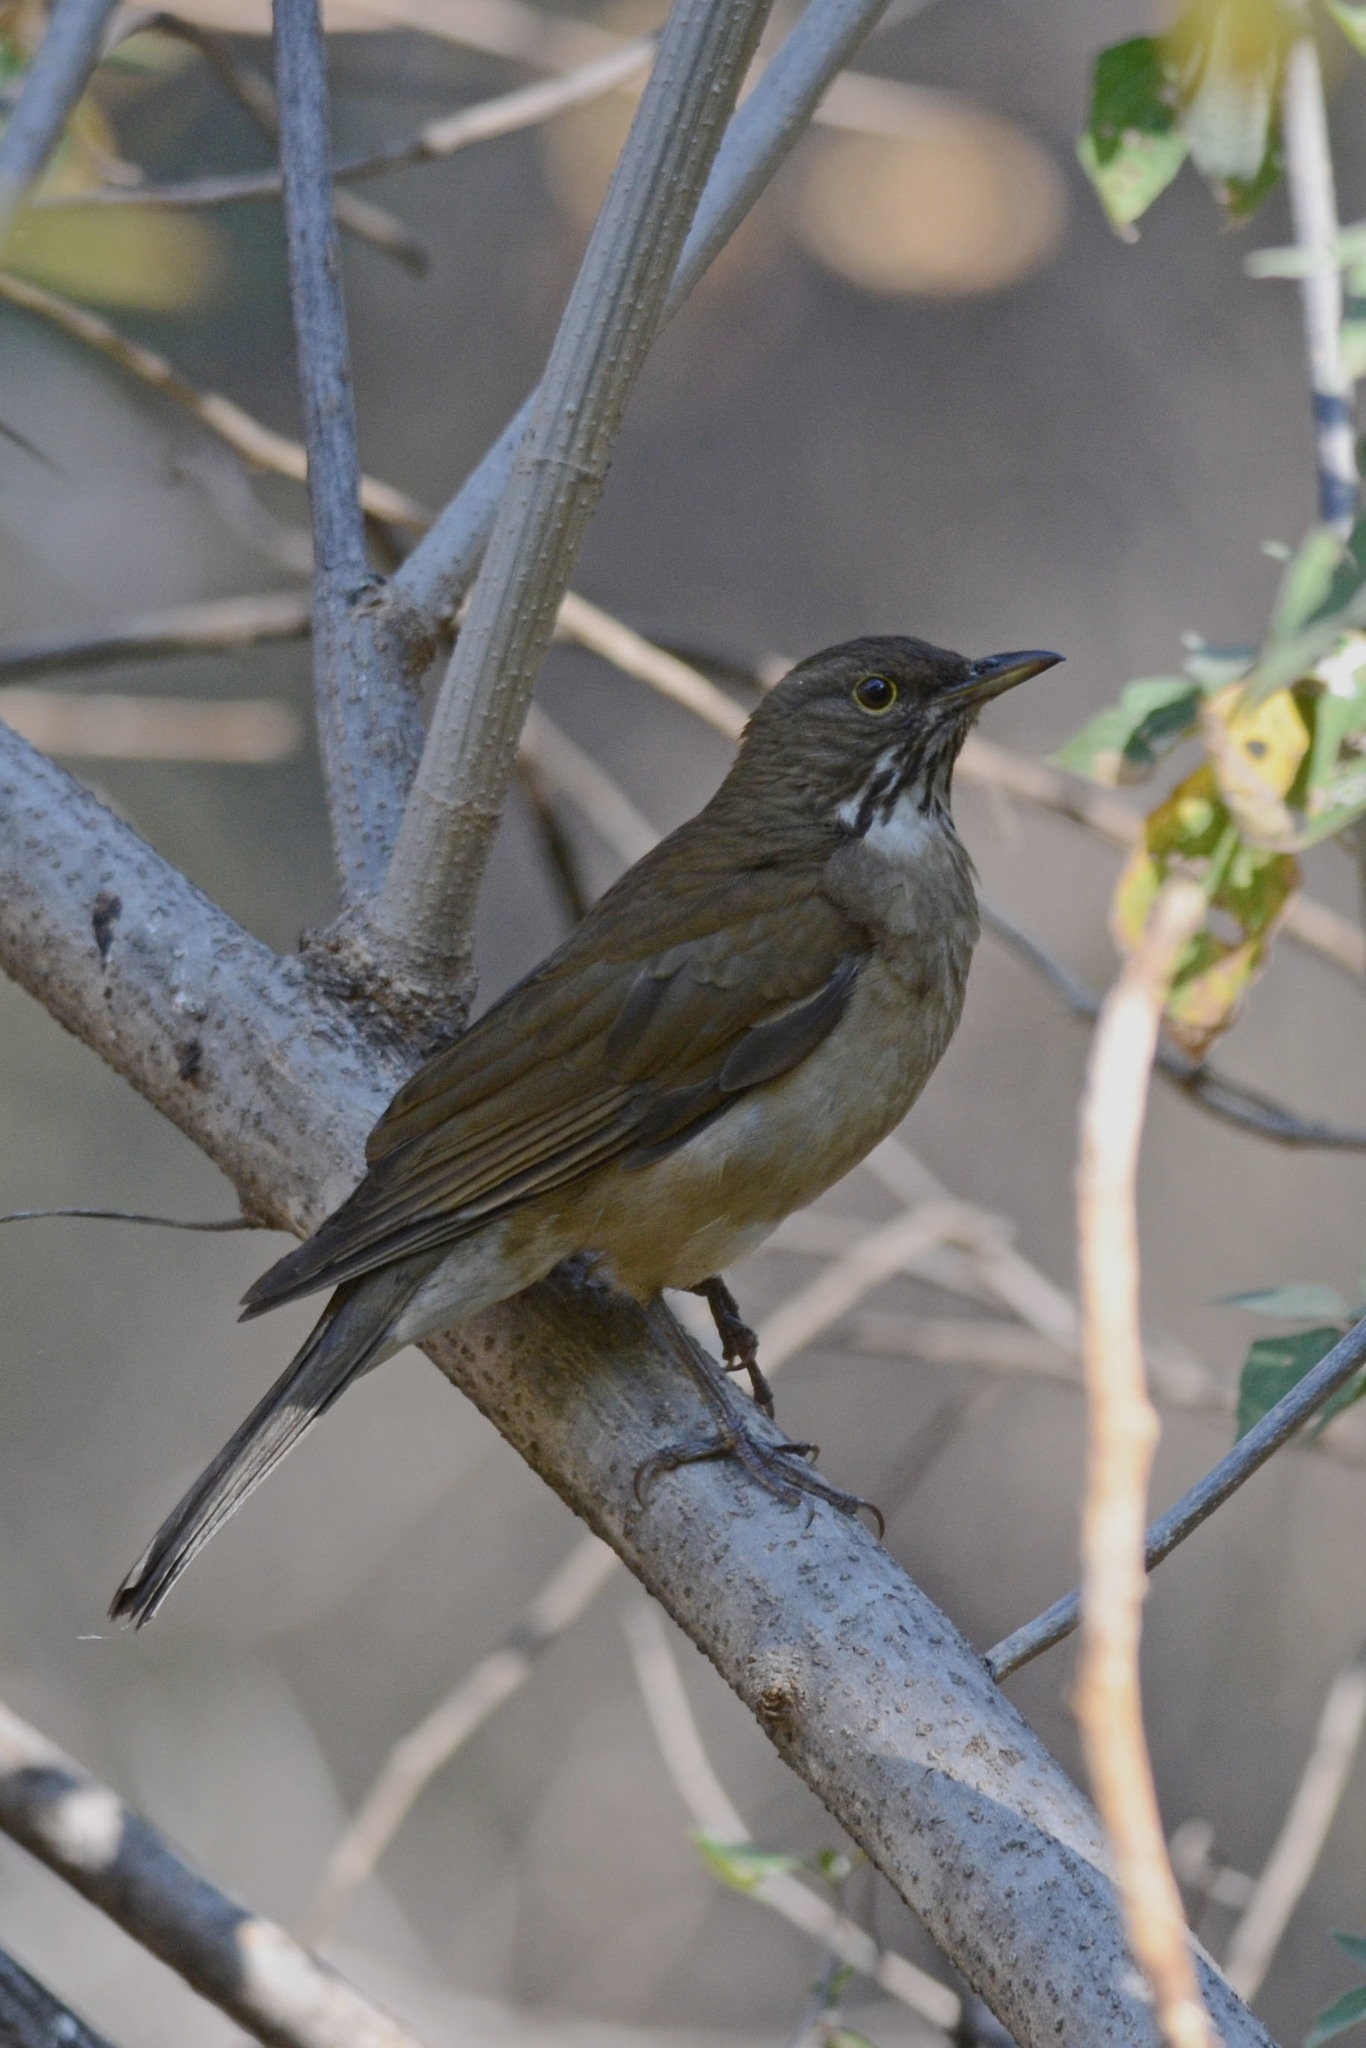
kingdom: Animalia
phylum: Chordata
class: Aves
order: Passeriformes
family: Turdidae
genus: Turdus
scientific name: Turdus assimilis
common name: White-throated thrush
